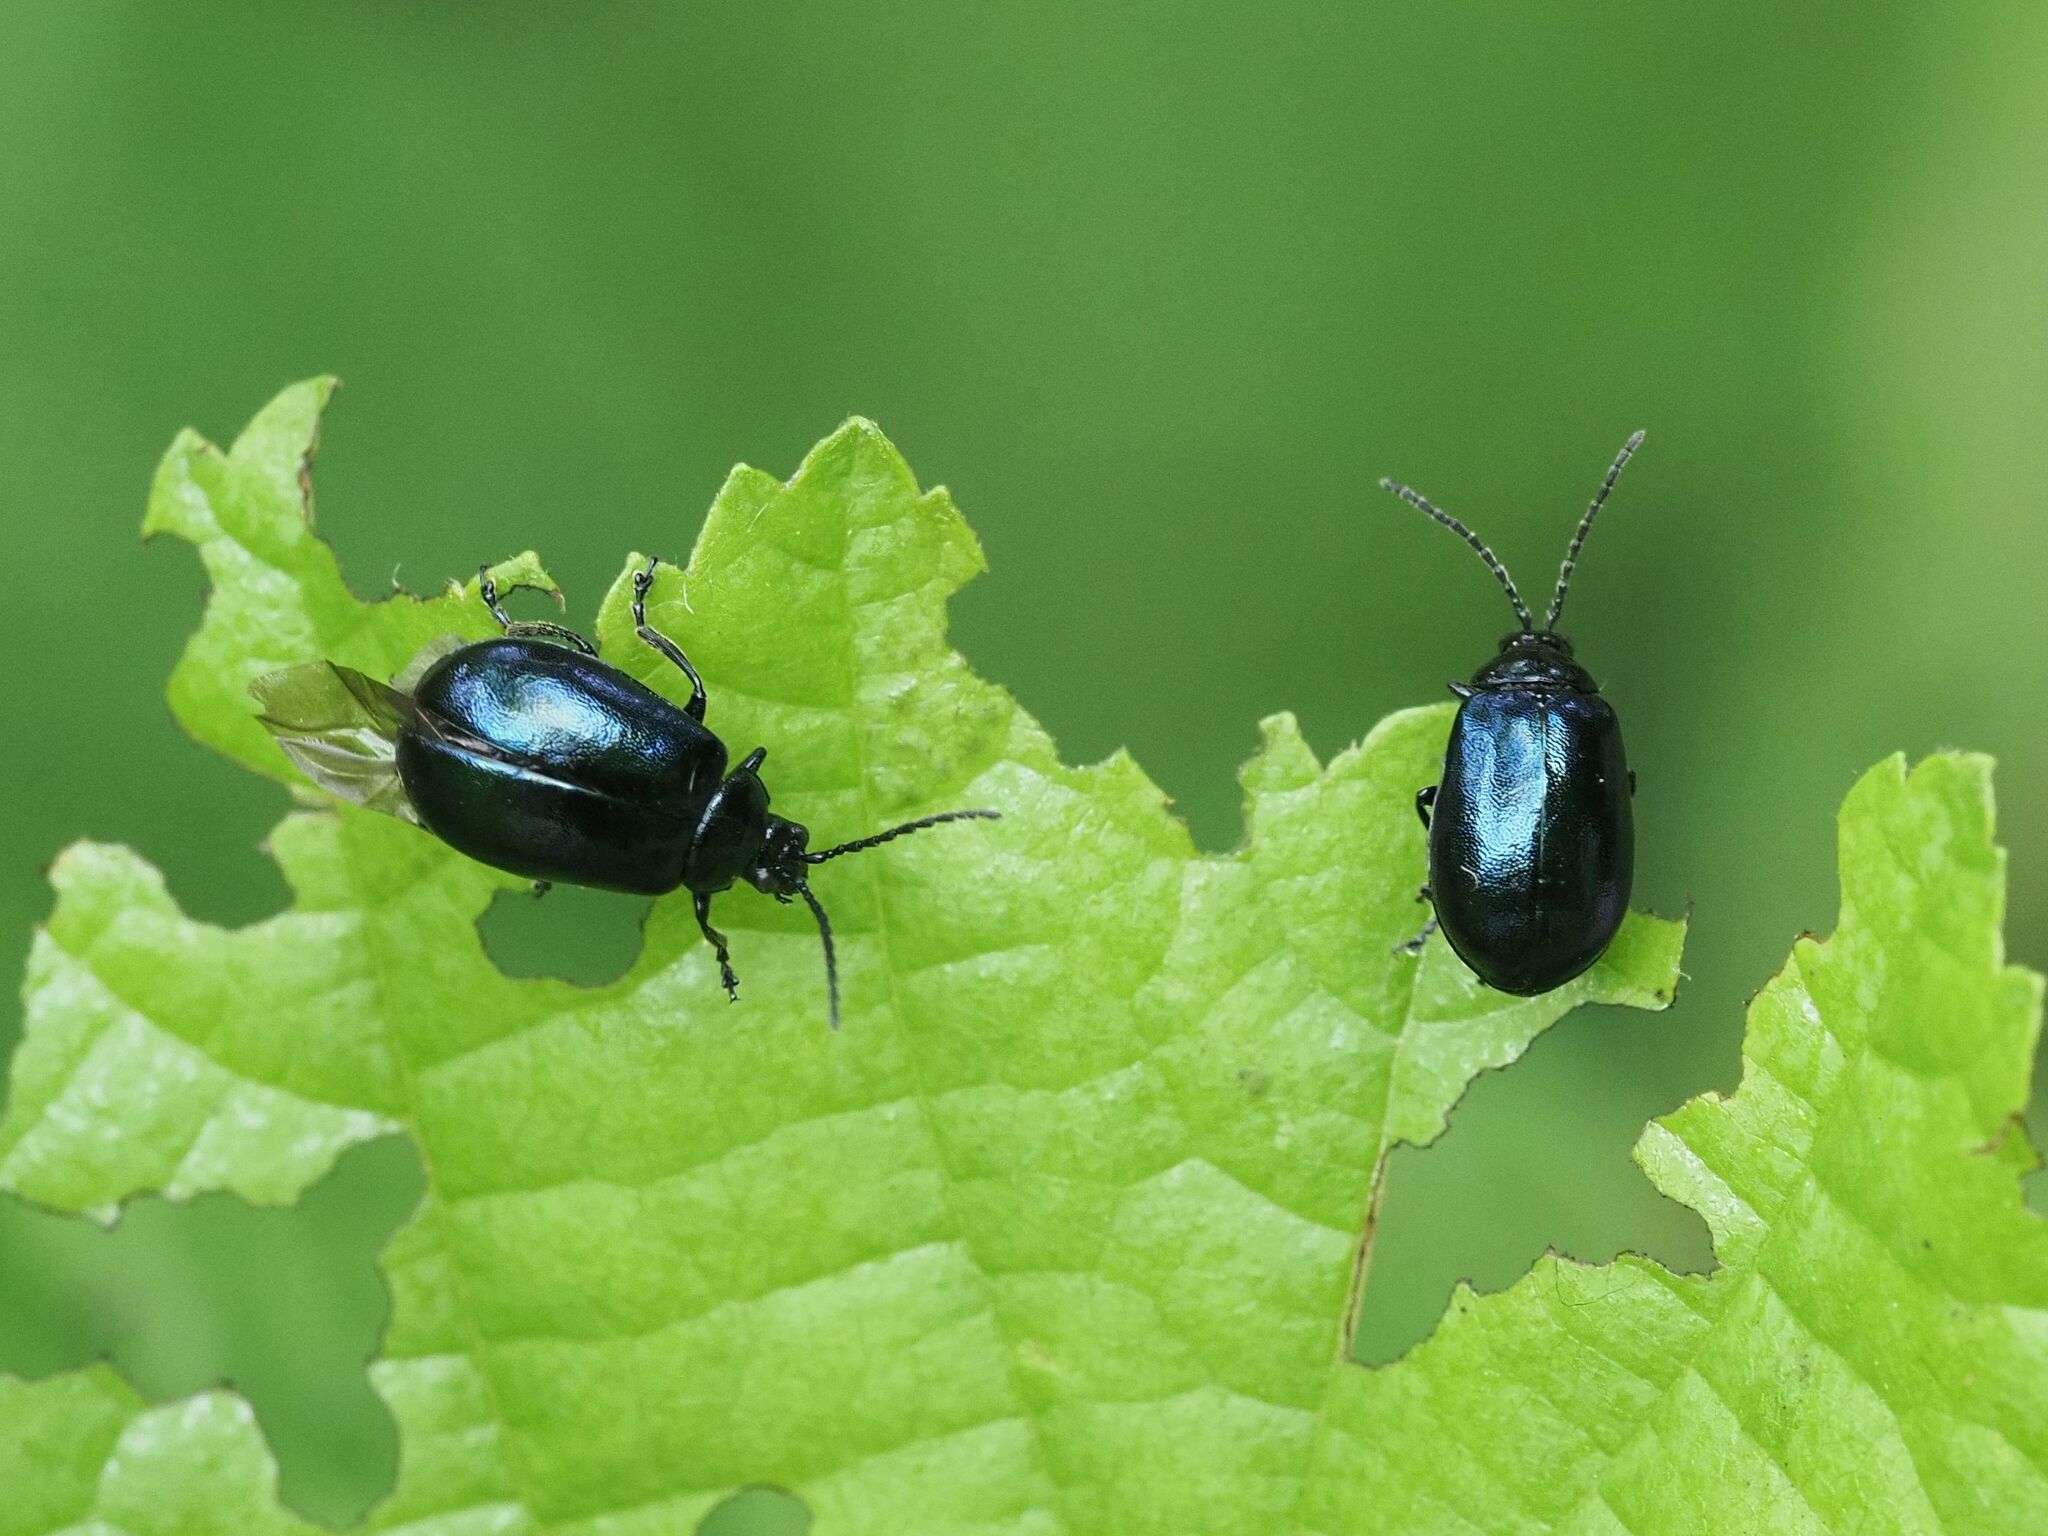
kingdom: Animalia
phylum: Arthropoda
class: Insecta
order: Coleoptera
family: Chrysomelidae
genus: Agelastica
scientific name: Agelastica alni
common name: Alder leaf beetle
